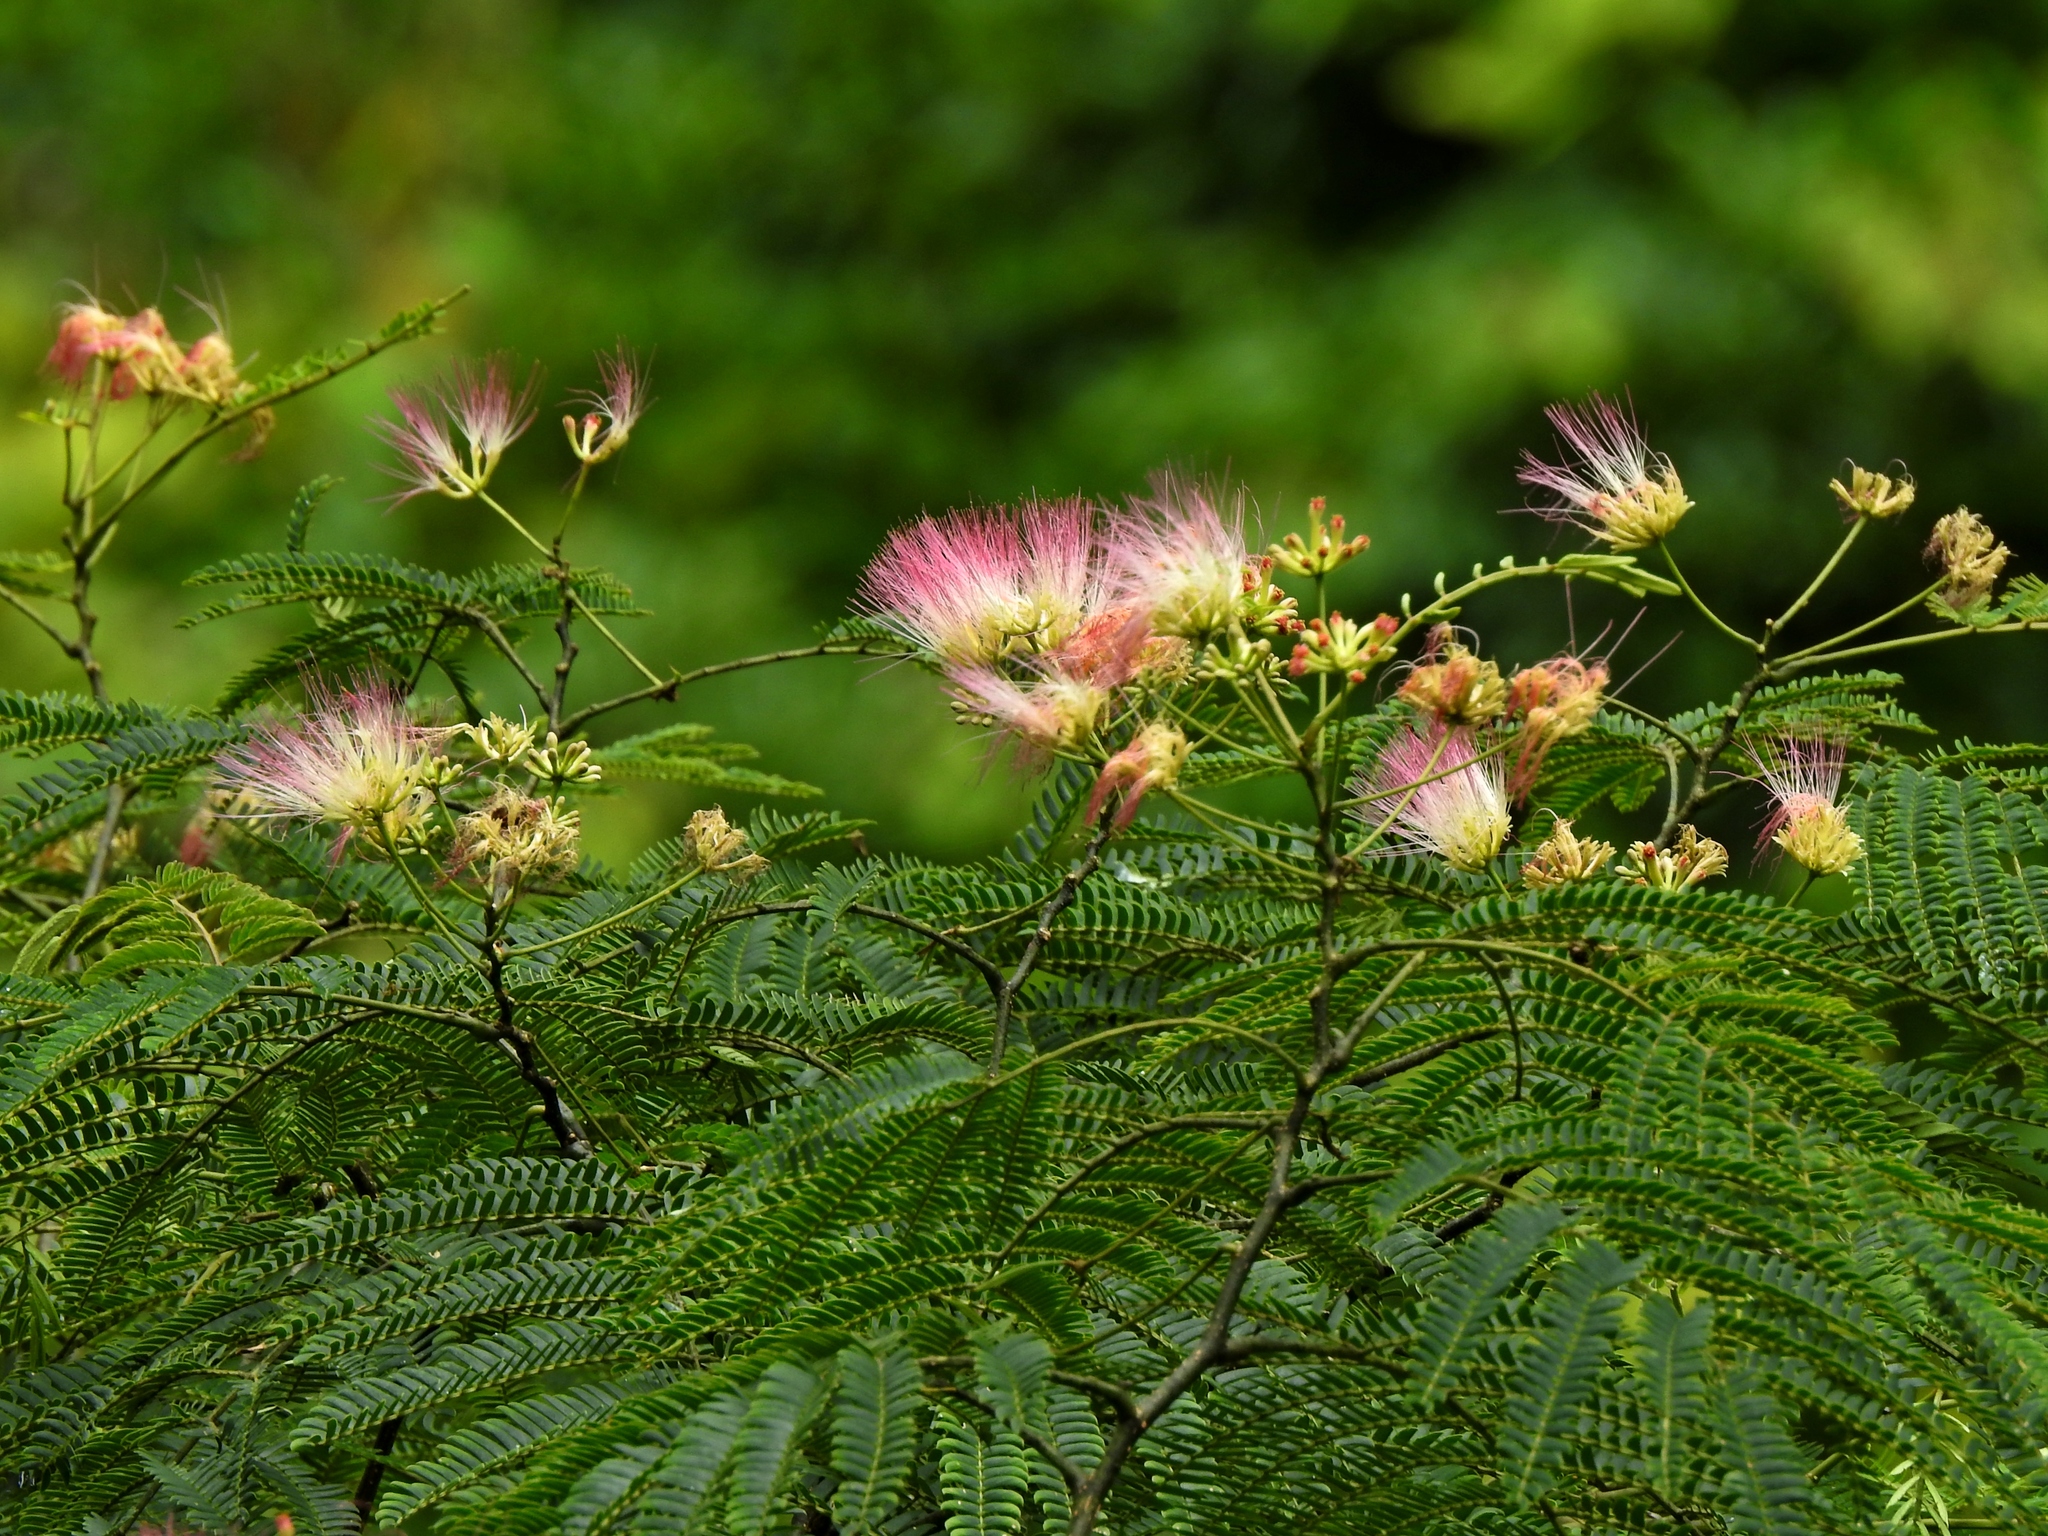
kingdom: Plantae
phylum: Tracheophyta
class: Magnoliopsida
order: Fabales
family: Fabaceae
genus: Albizia
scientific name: Albizia julibrissin
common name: Silktree
